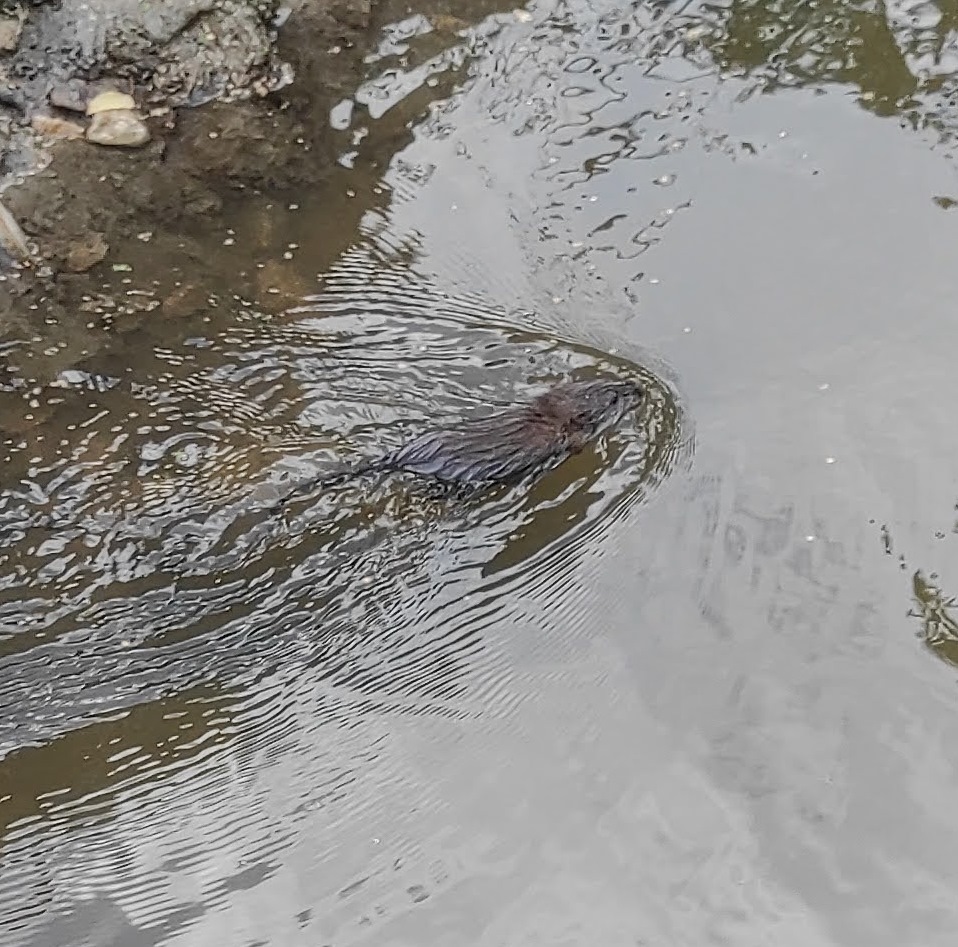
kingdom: Animalia
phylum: Chordata
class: Mammalia
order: Rodentia
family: Cricetidae
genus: Ondatra
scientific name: Ondatra zibethicus
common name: Muskrat
